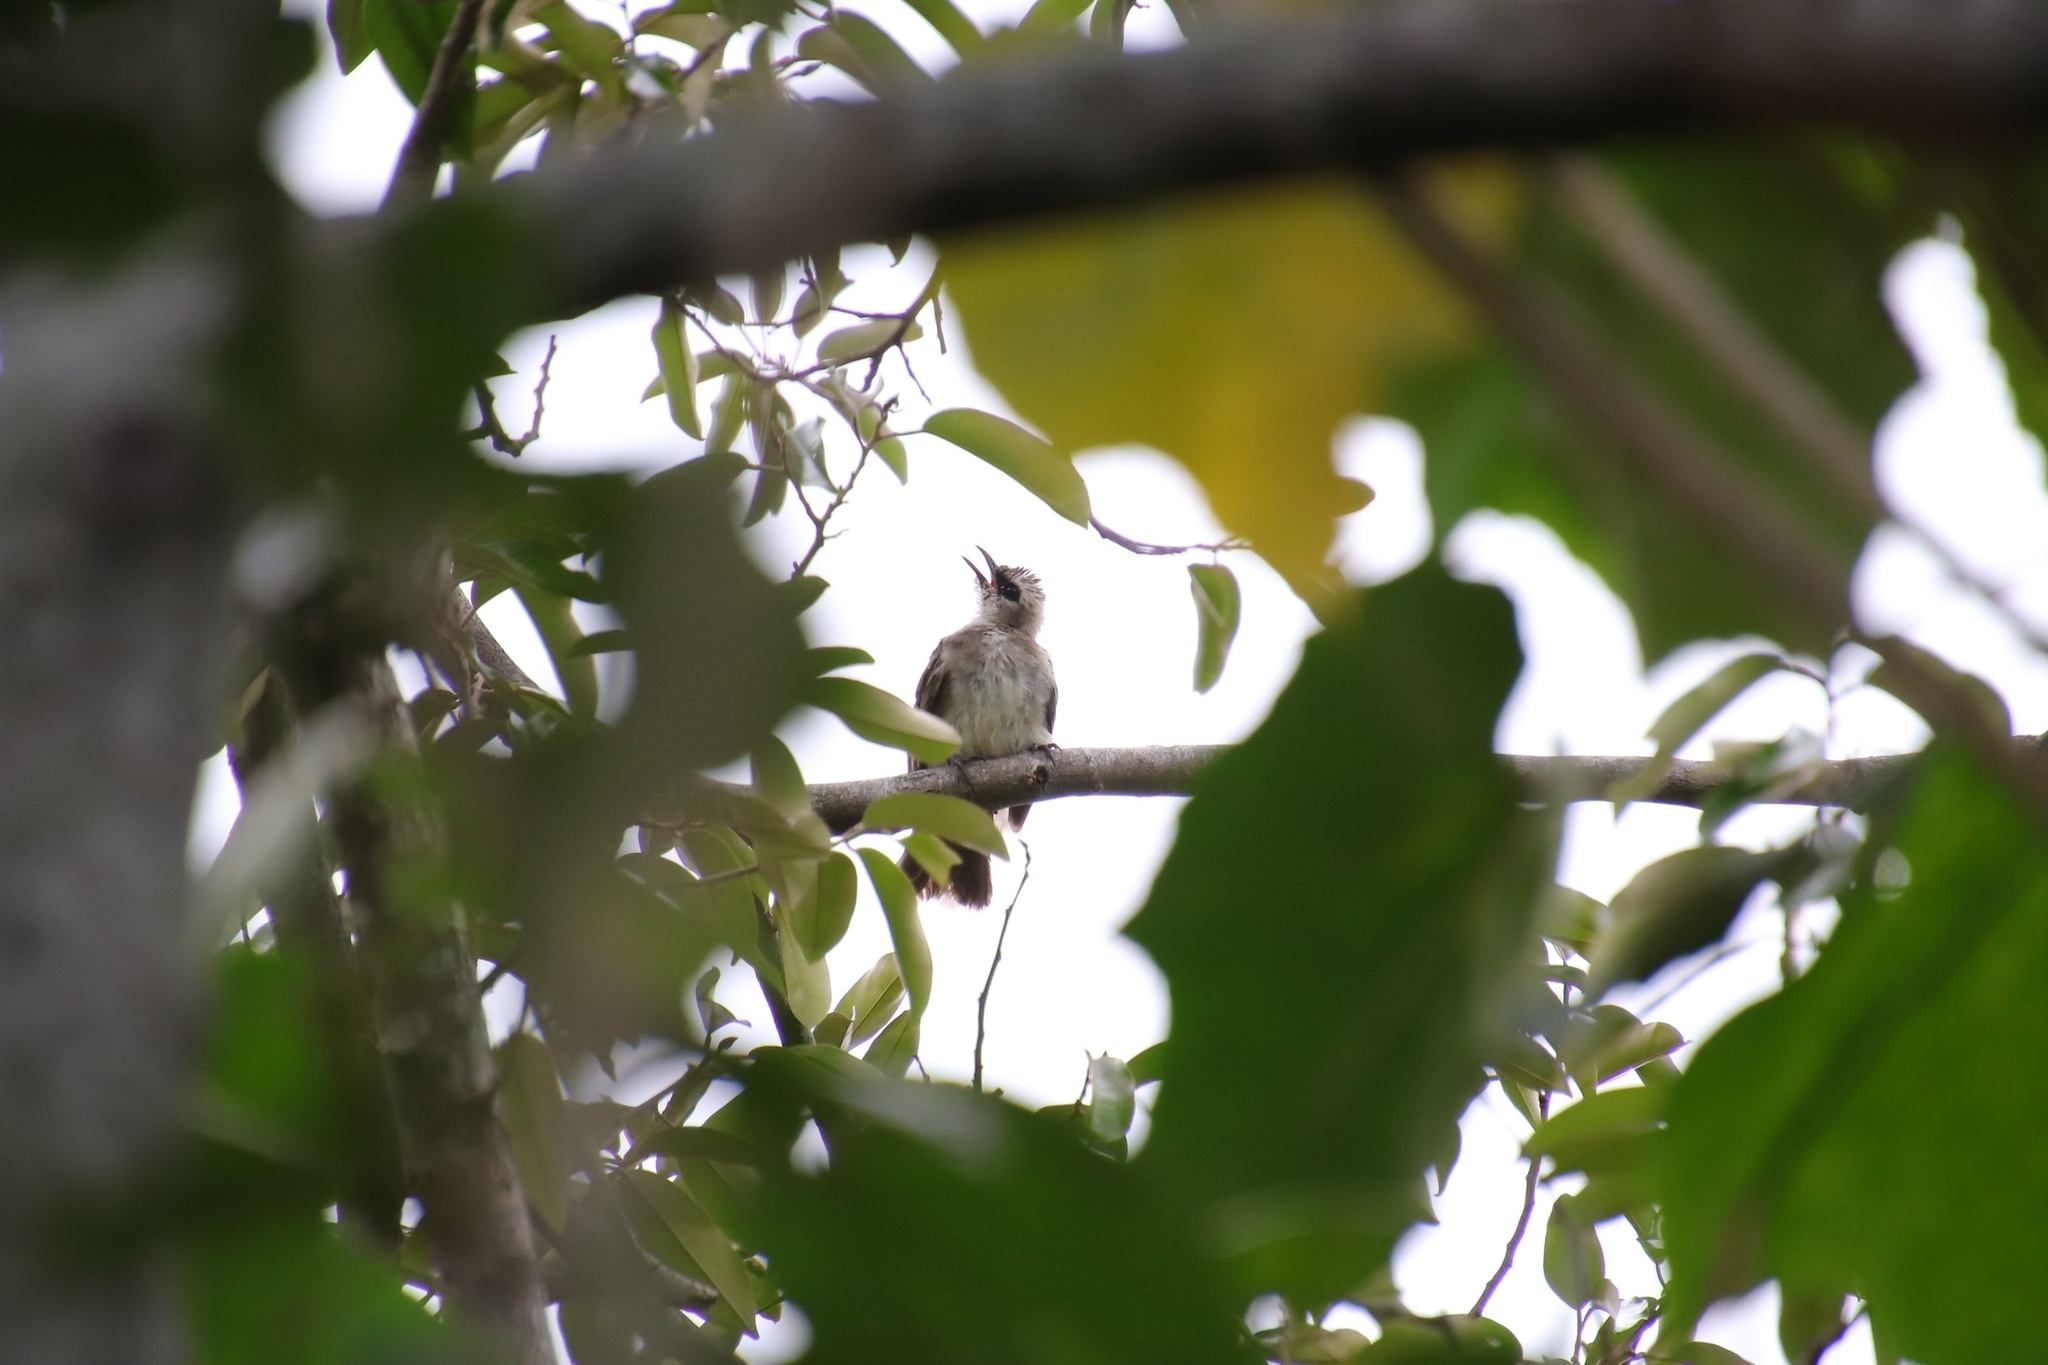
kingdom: Animalia
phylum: Chordata
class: Aves
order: Passeriformes
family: Pycnonotidae
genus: Pycnonotus
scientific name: Pycnonotus goiavier
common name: Yellow-vented bulbul
